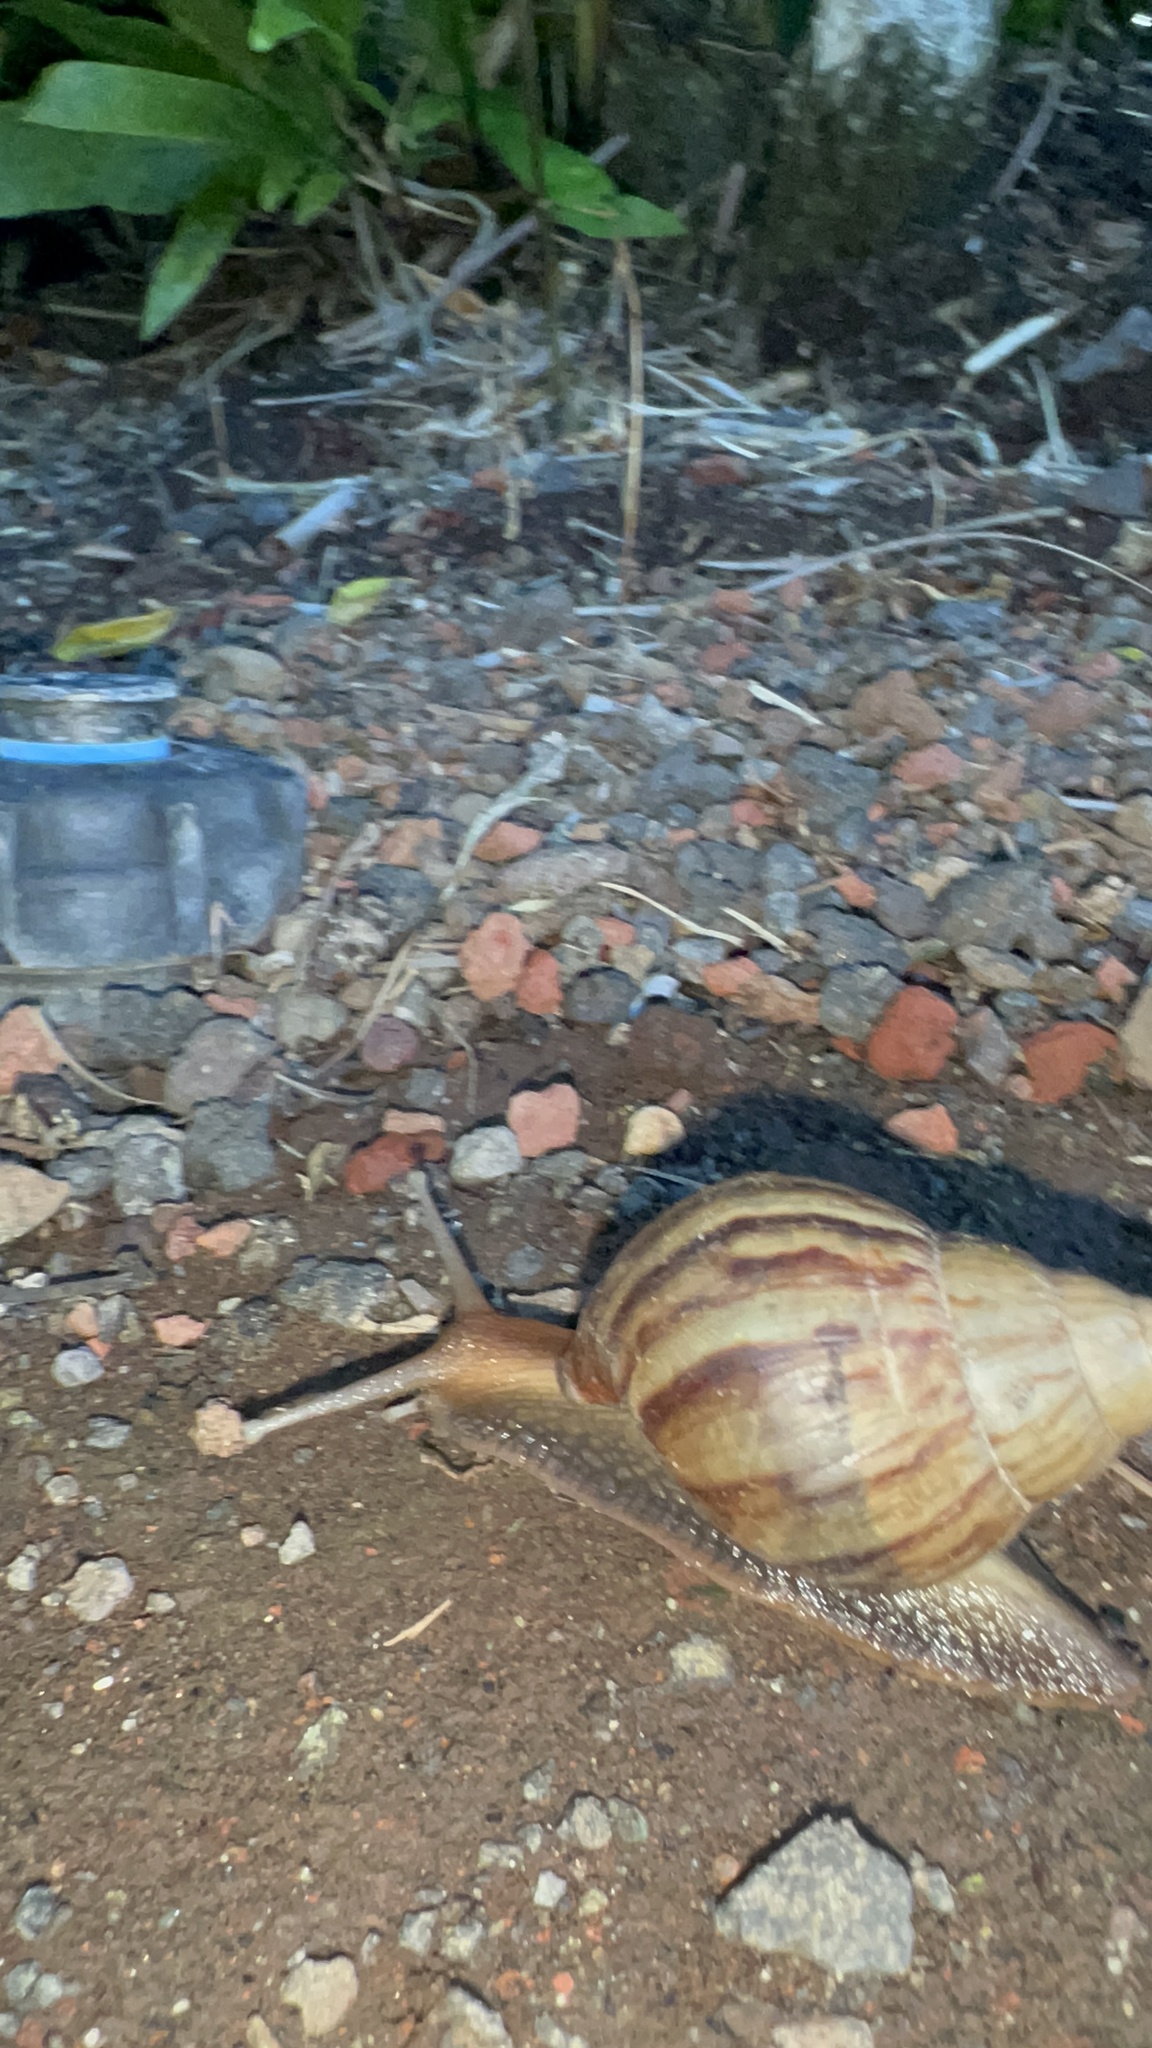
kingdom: Animalia
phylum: Mollusca
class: Gastropoda
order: Stylommatophora
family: Achatinidae
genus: Lissachatina
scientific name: Lissachatina fulica
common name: Giant african snail
